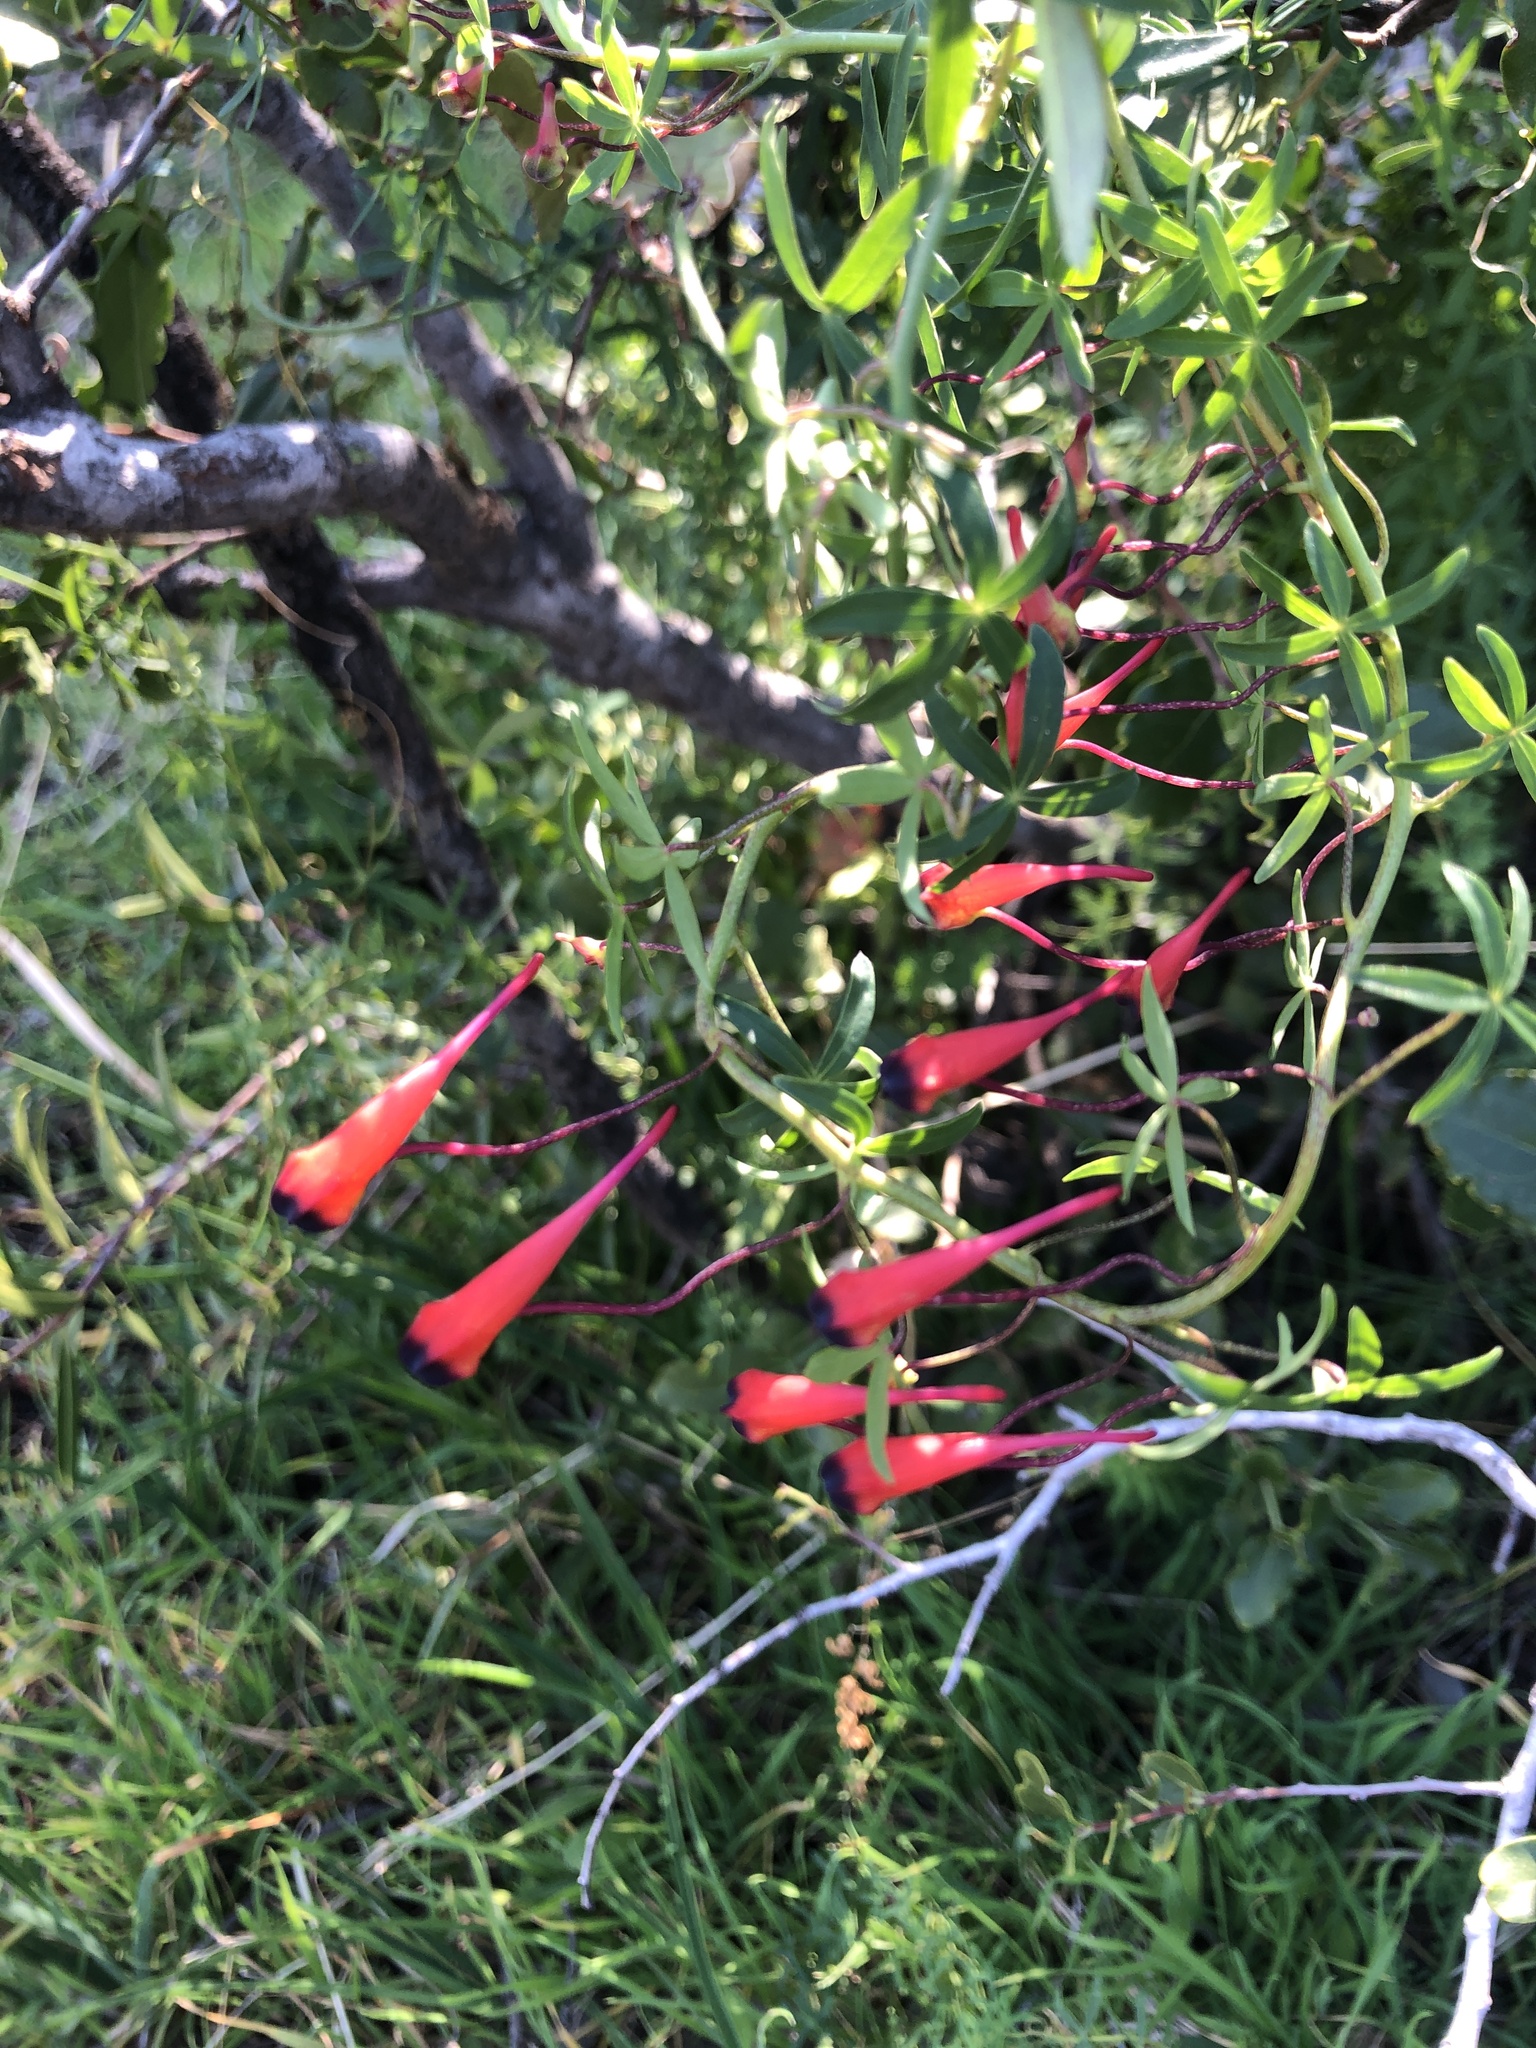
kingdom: Plantae
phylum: Tracheophyta
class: Magnoliopsida
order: Brassicales
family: Tropaeolaceae
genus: Tropaeolum
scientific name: Tropaeolum tricolor
